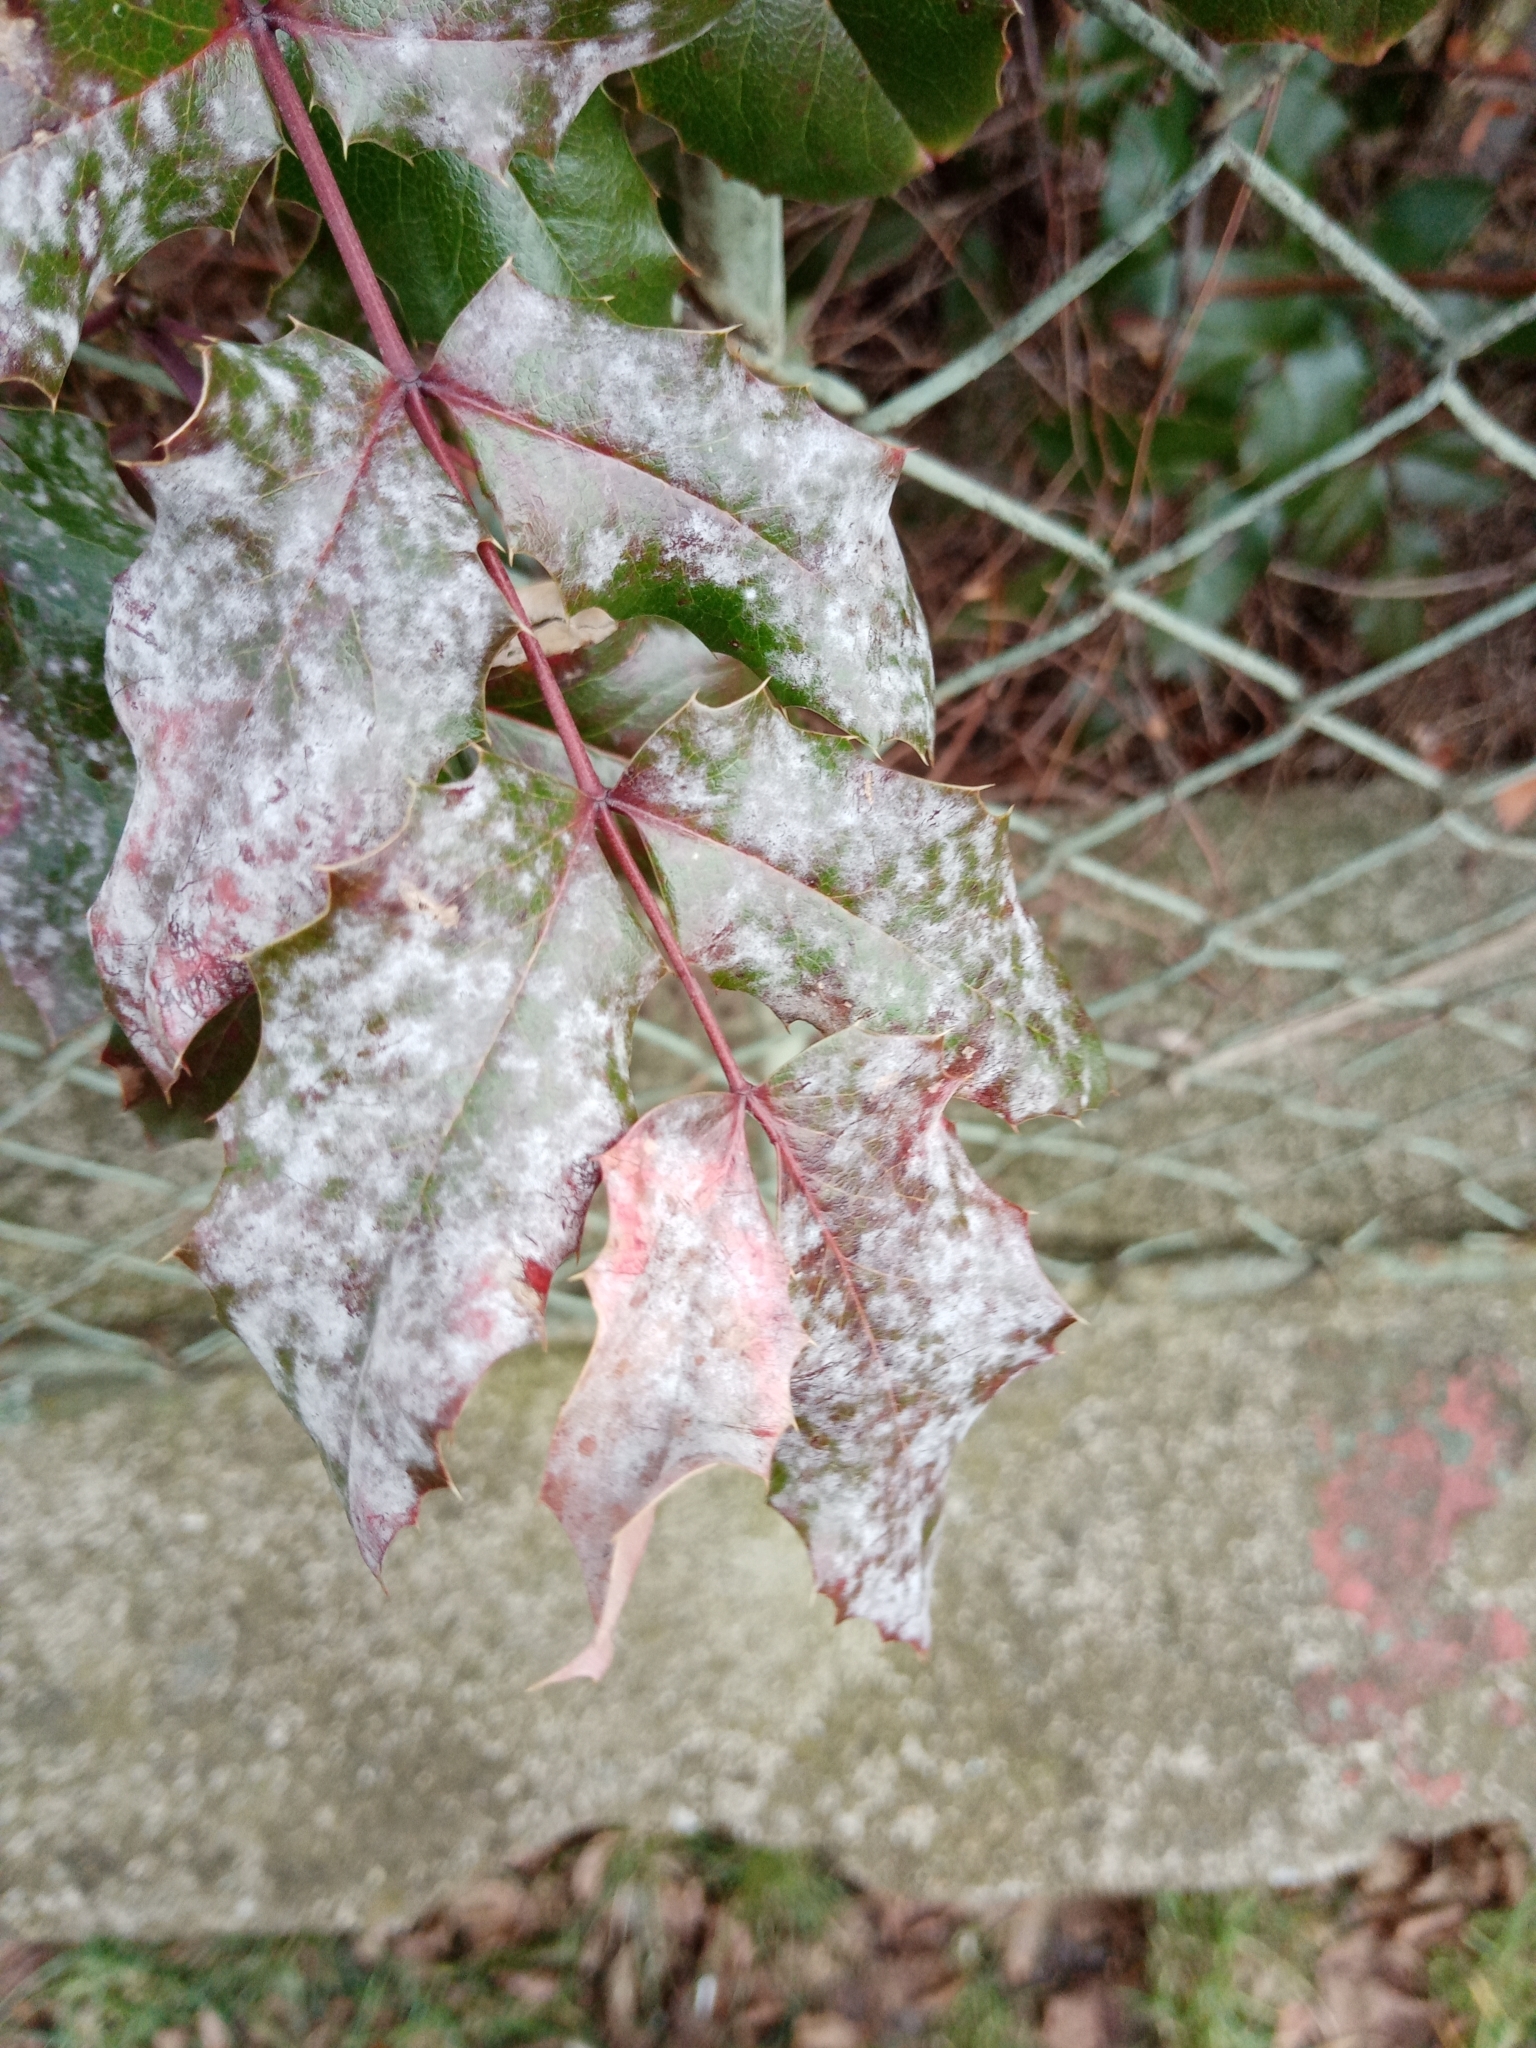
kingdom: Fungi
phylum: Ascomycota
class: Leotiomycetes
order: Helotiales
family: Erysiphaceae
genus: Erysiphe
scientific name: Erysiphe berberidis
